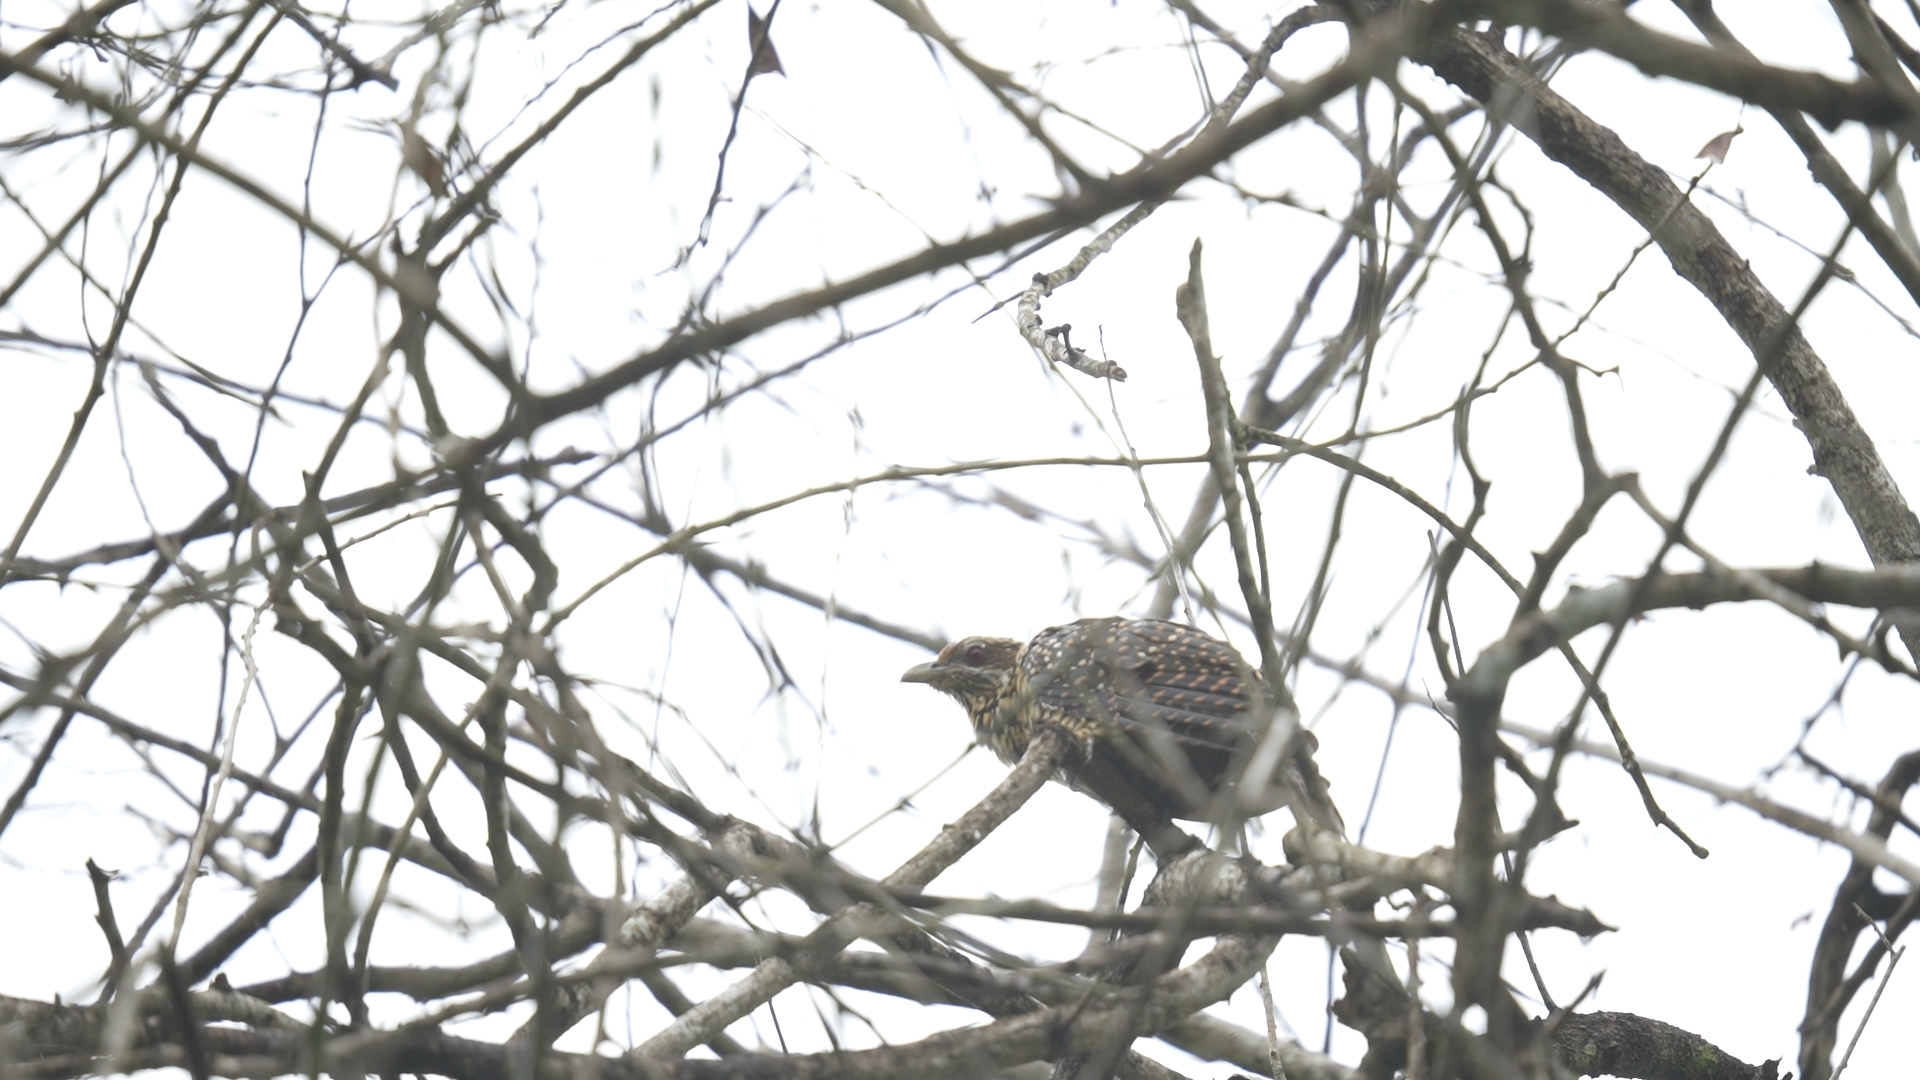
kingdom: Animalia
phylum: Chordata
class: Aves
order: Cuculiformes
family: Cuculidae
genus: Eudynamys
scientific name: Eudynamys scolopaceus
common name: Asian koel
